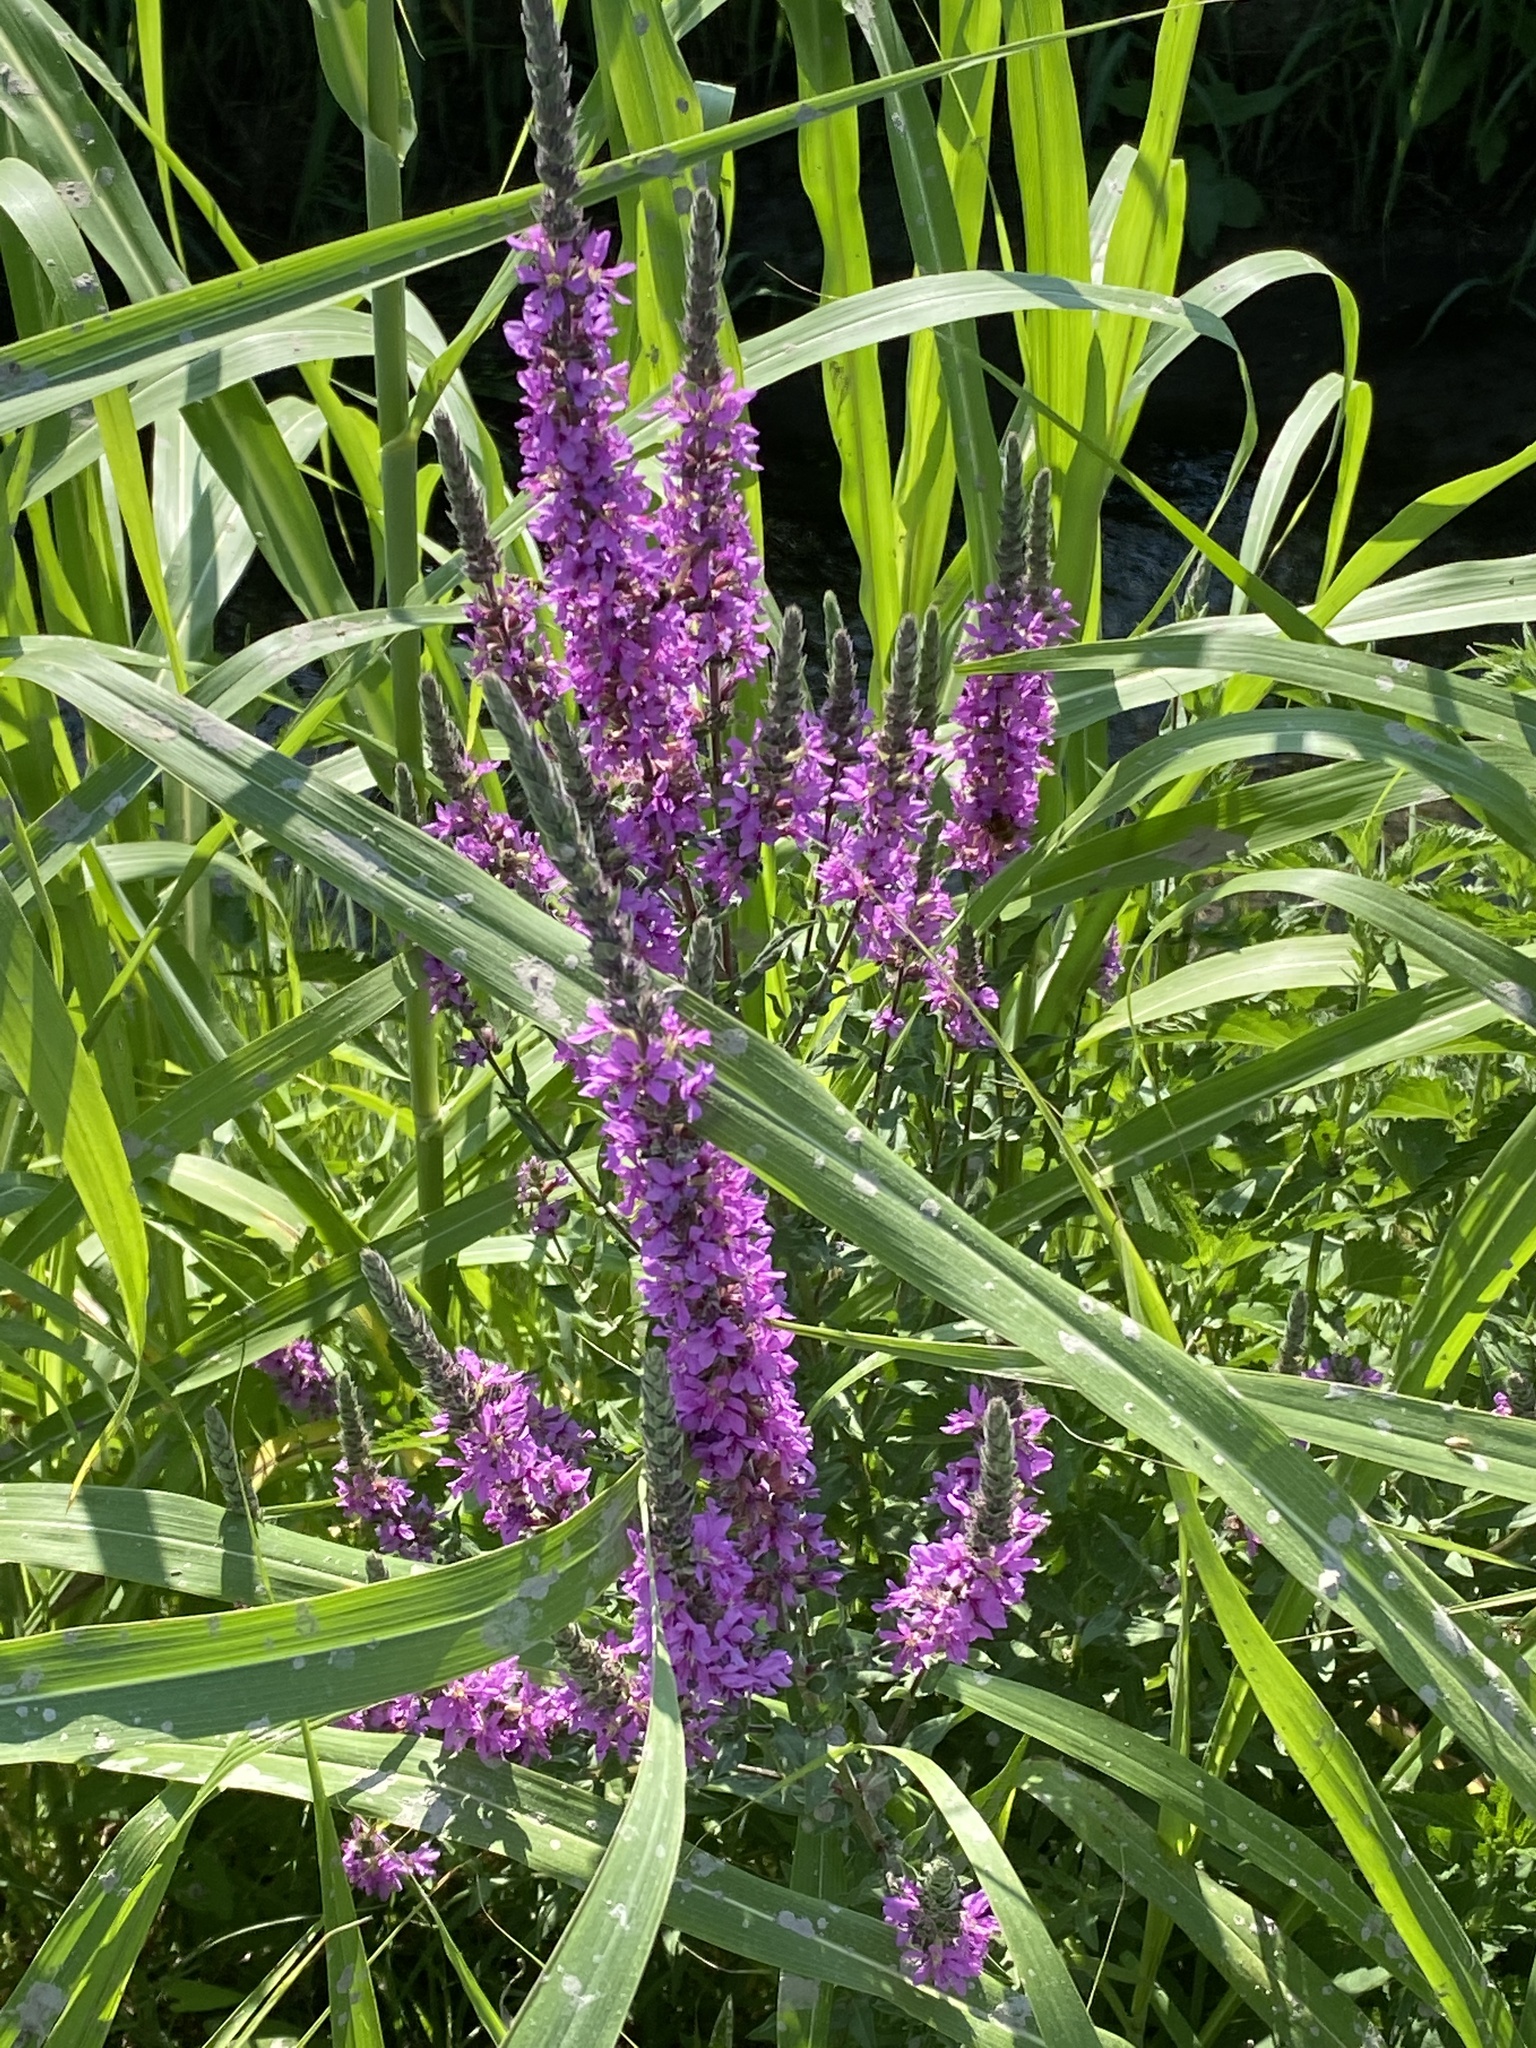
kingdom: Plantae
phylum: Tracheophyta
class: Magnoliopsida
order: Myrtales
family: Lythraceae
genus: Lythrum
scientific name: Lythrum salicaria
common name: Purple loosestrife
